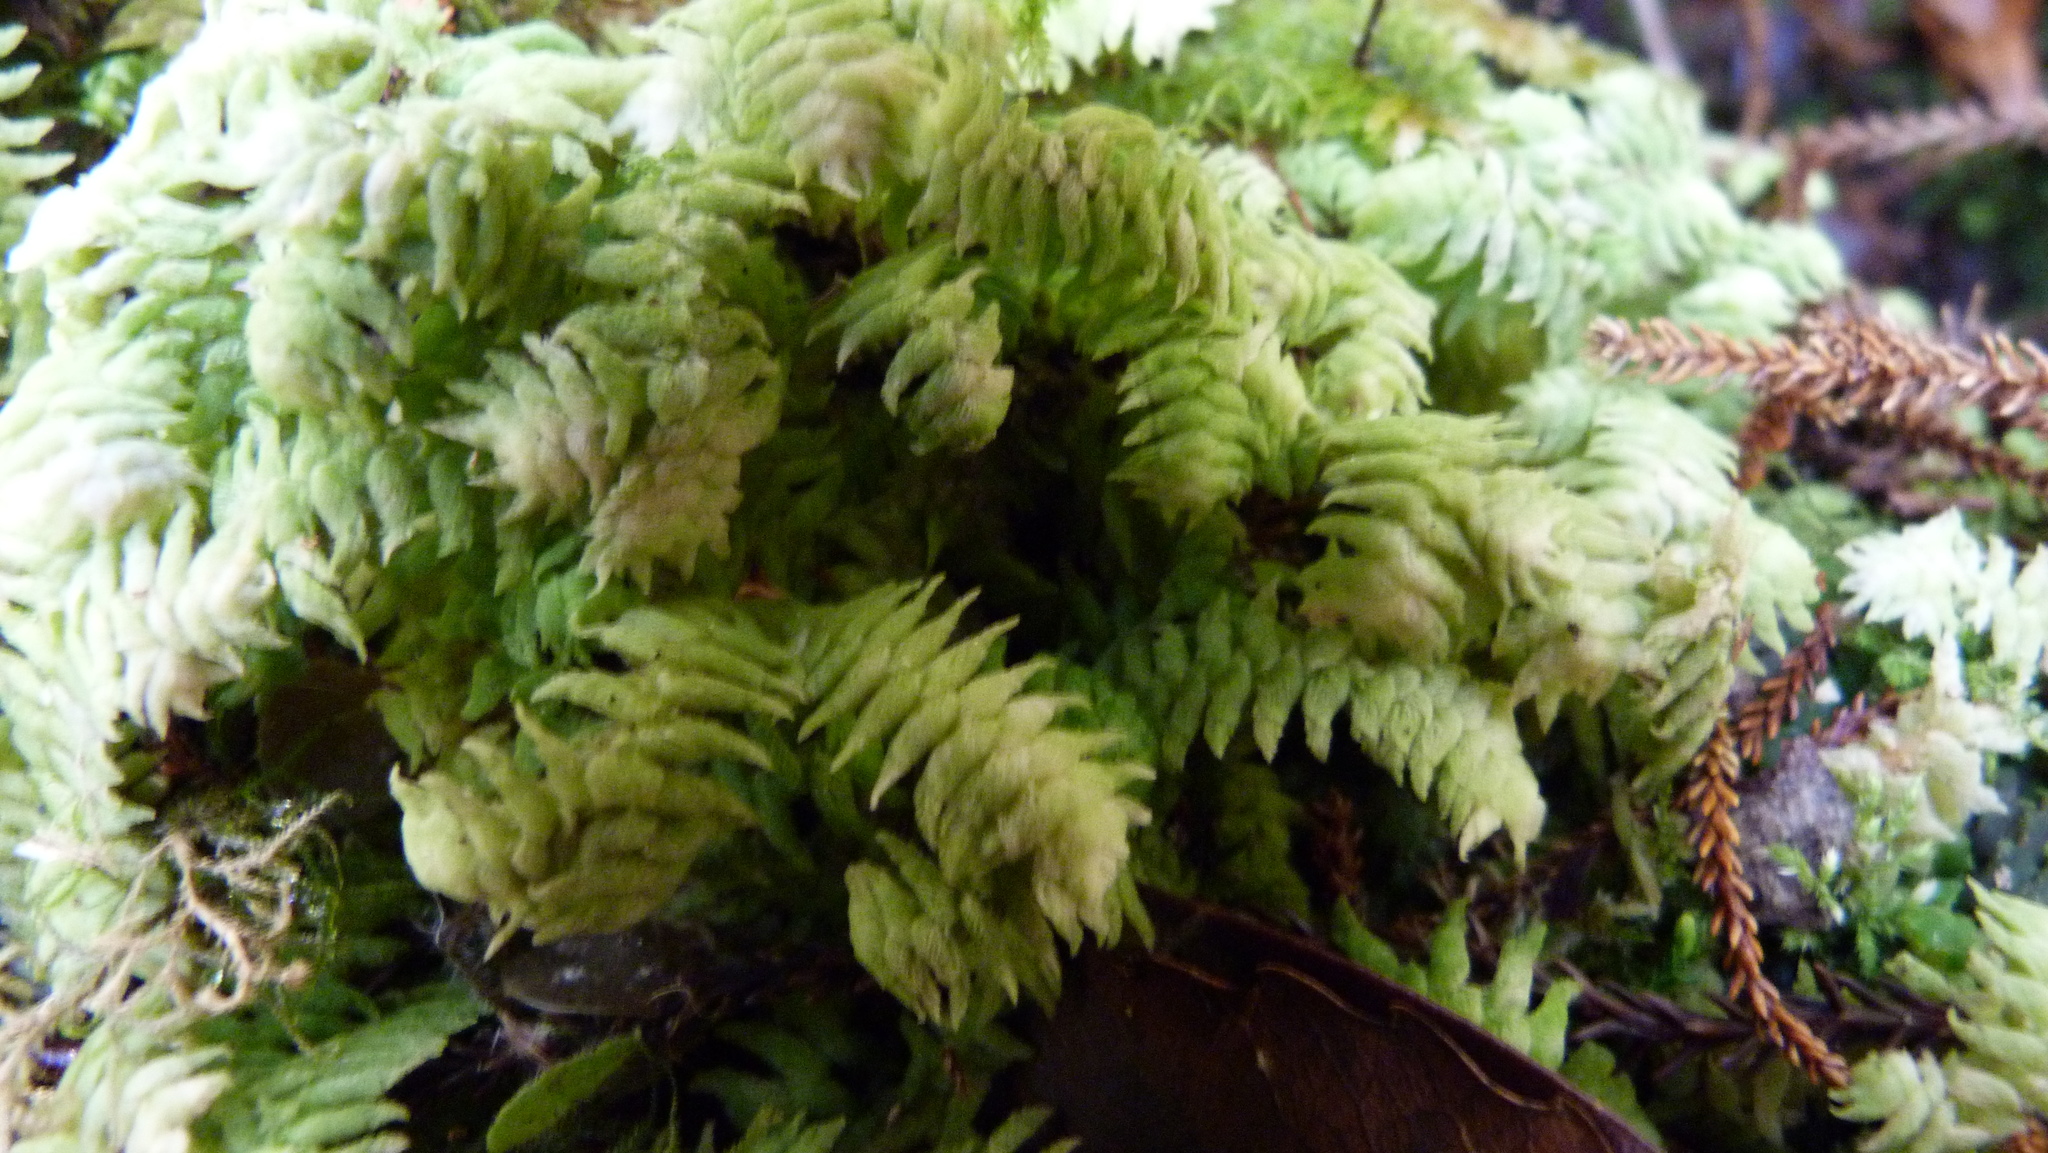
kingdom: Plantae
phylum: Marchantiophyta
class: Jungermanniopsida
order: Jungermanniales
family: Schistochilaceae
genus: Schistochila
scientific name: Schistochila glaucescens
